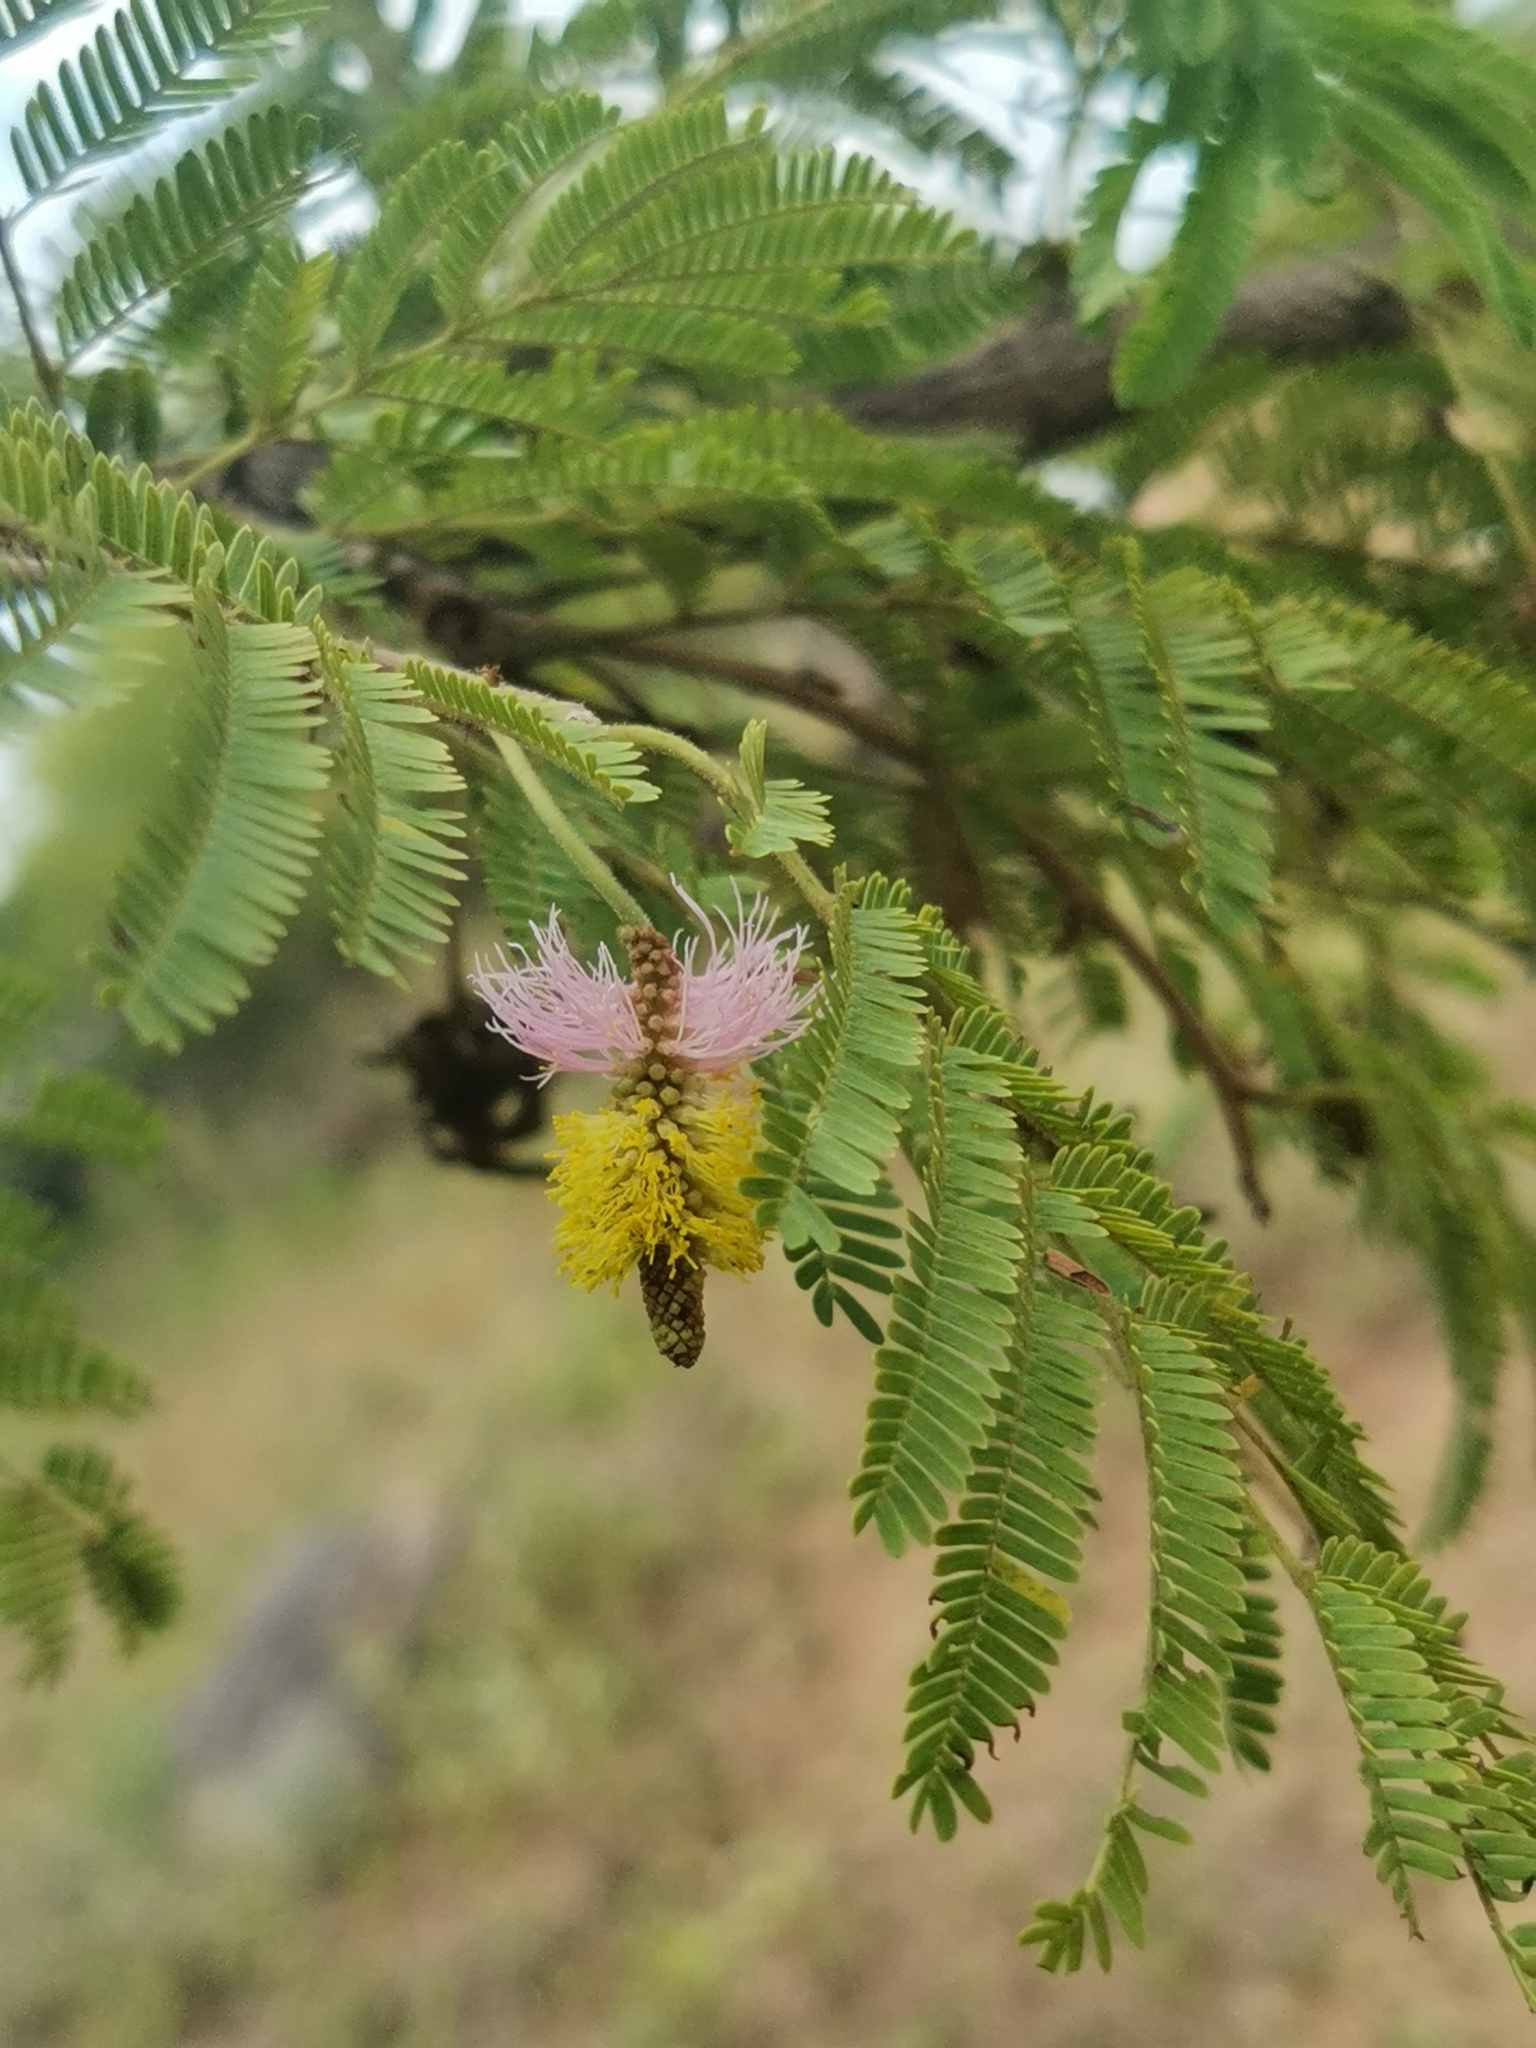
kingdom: Plantae
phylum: Tracheophyta
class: Magnoliopsida
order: Fabales
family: Fabaceae
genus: Dichrostachys
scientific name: Dichrostachys cinerea
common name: Sicklebush
